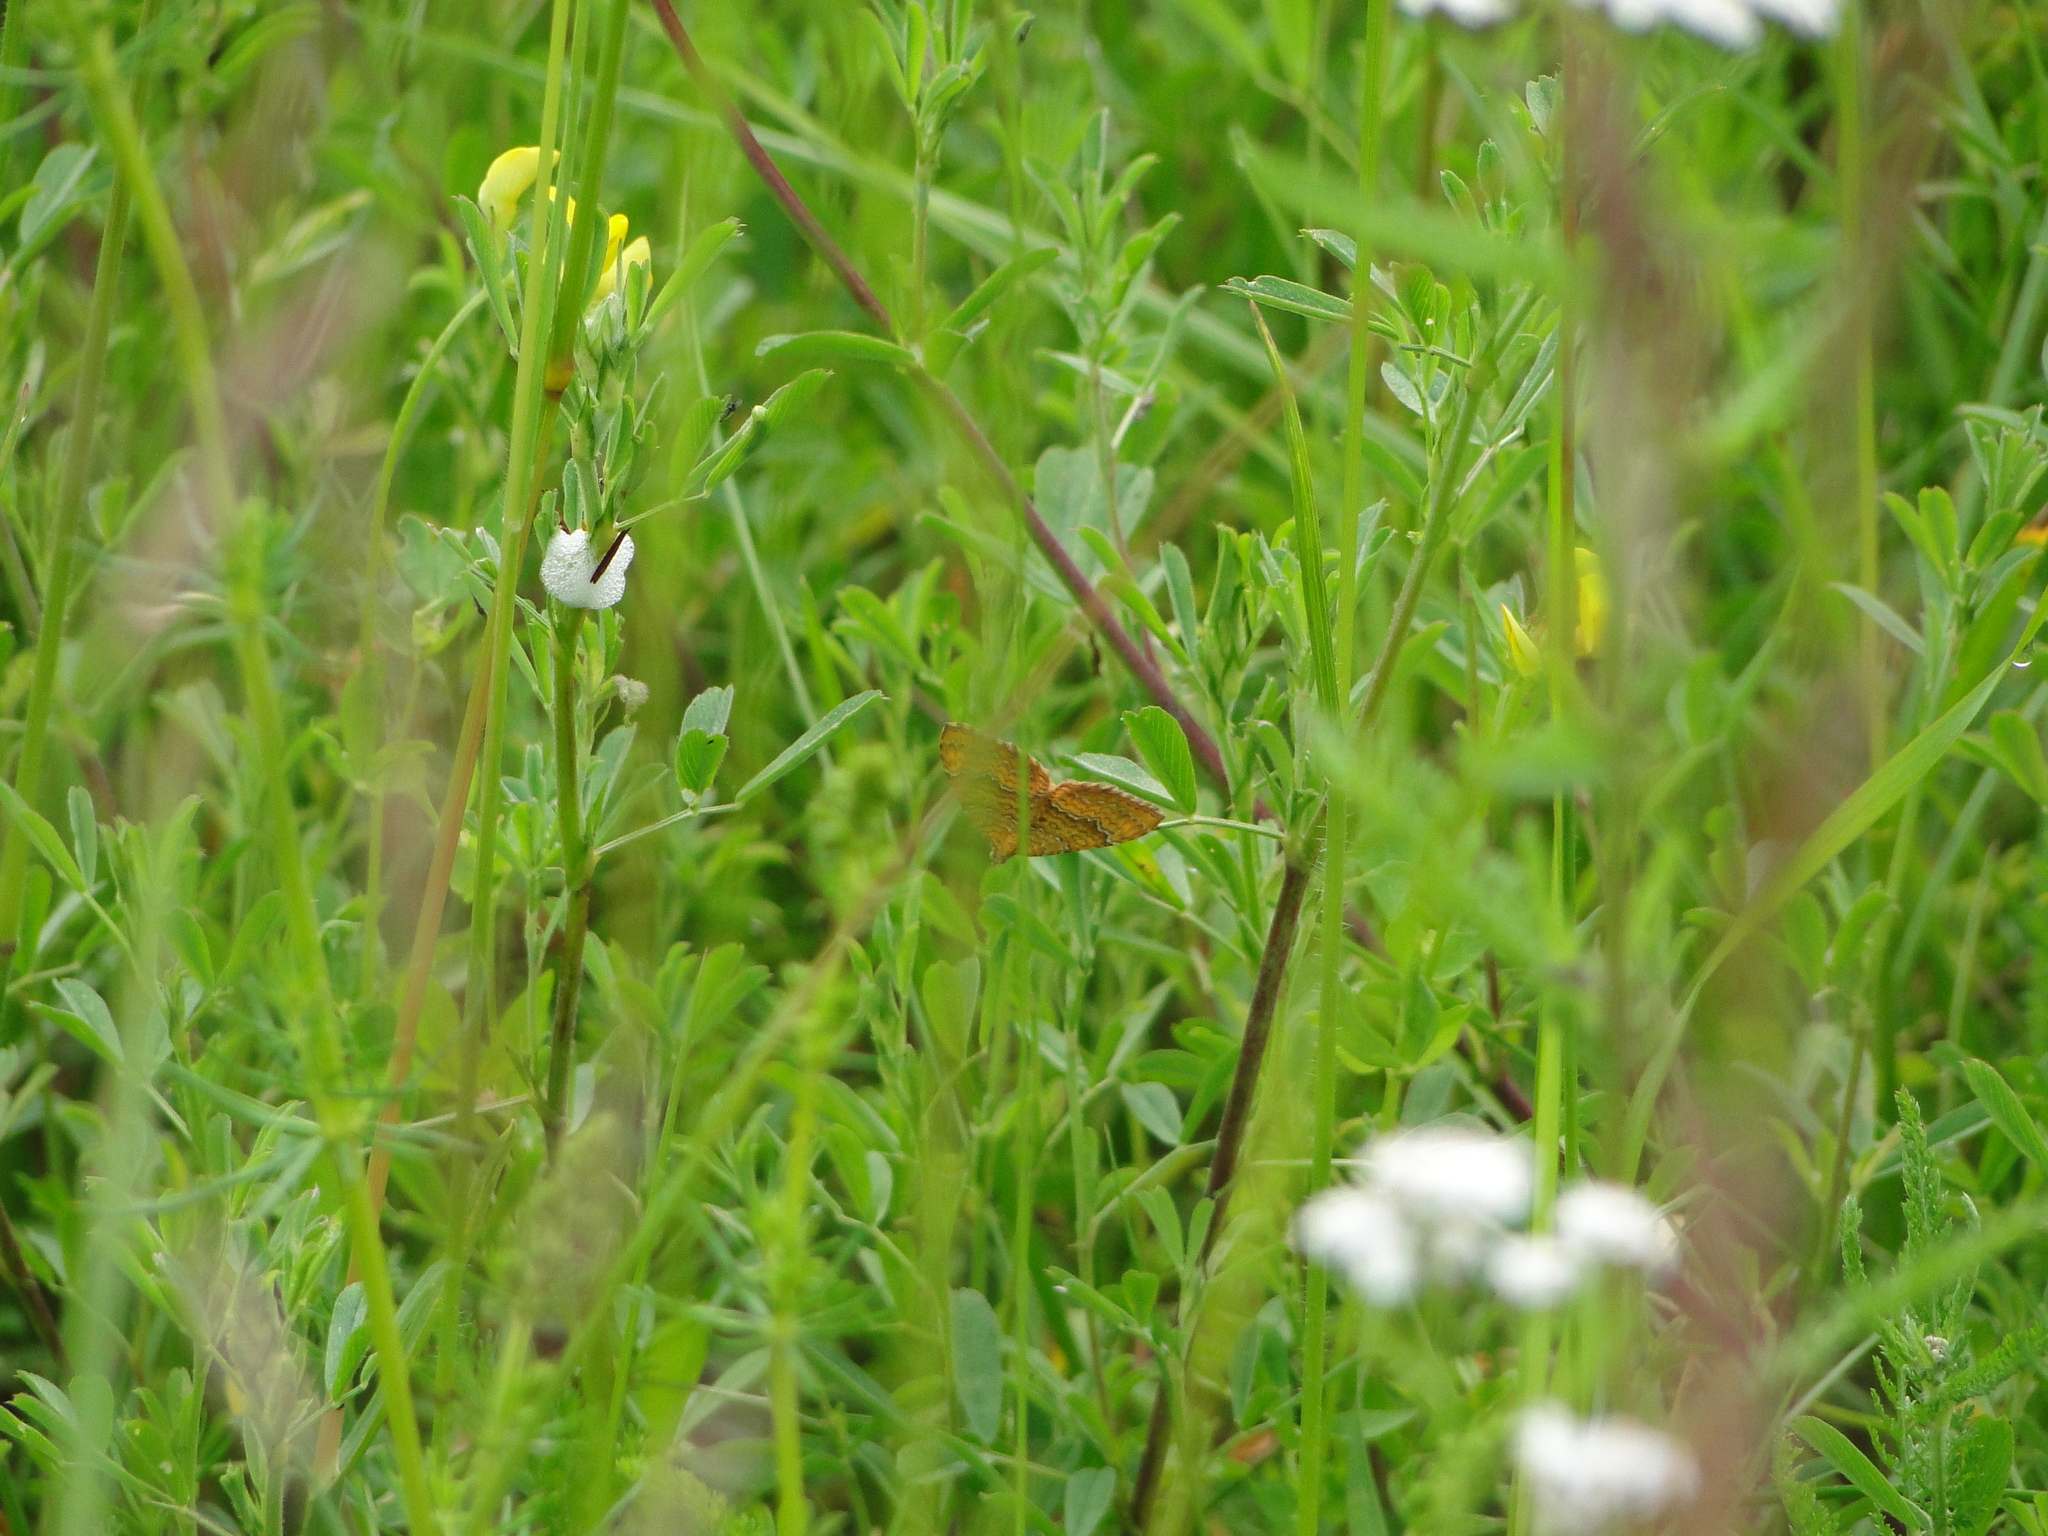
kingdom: Animalia
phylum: Arthropoda
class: Insecta
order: Lepidoptera
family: Geometridae
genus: Camptogramma
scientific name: Camptogramma bilineata
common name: Yellow shell
